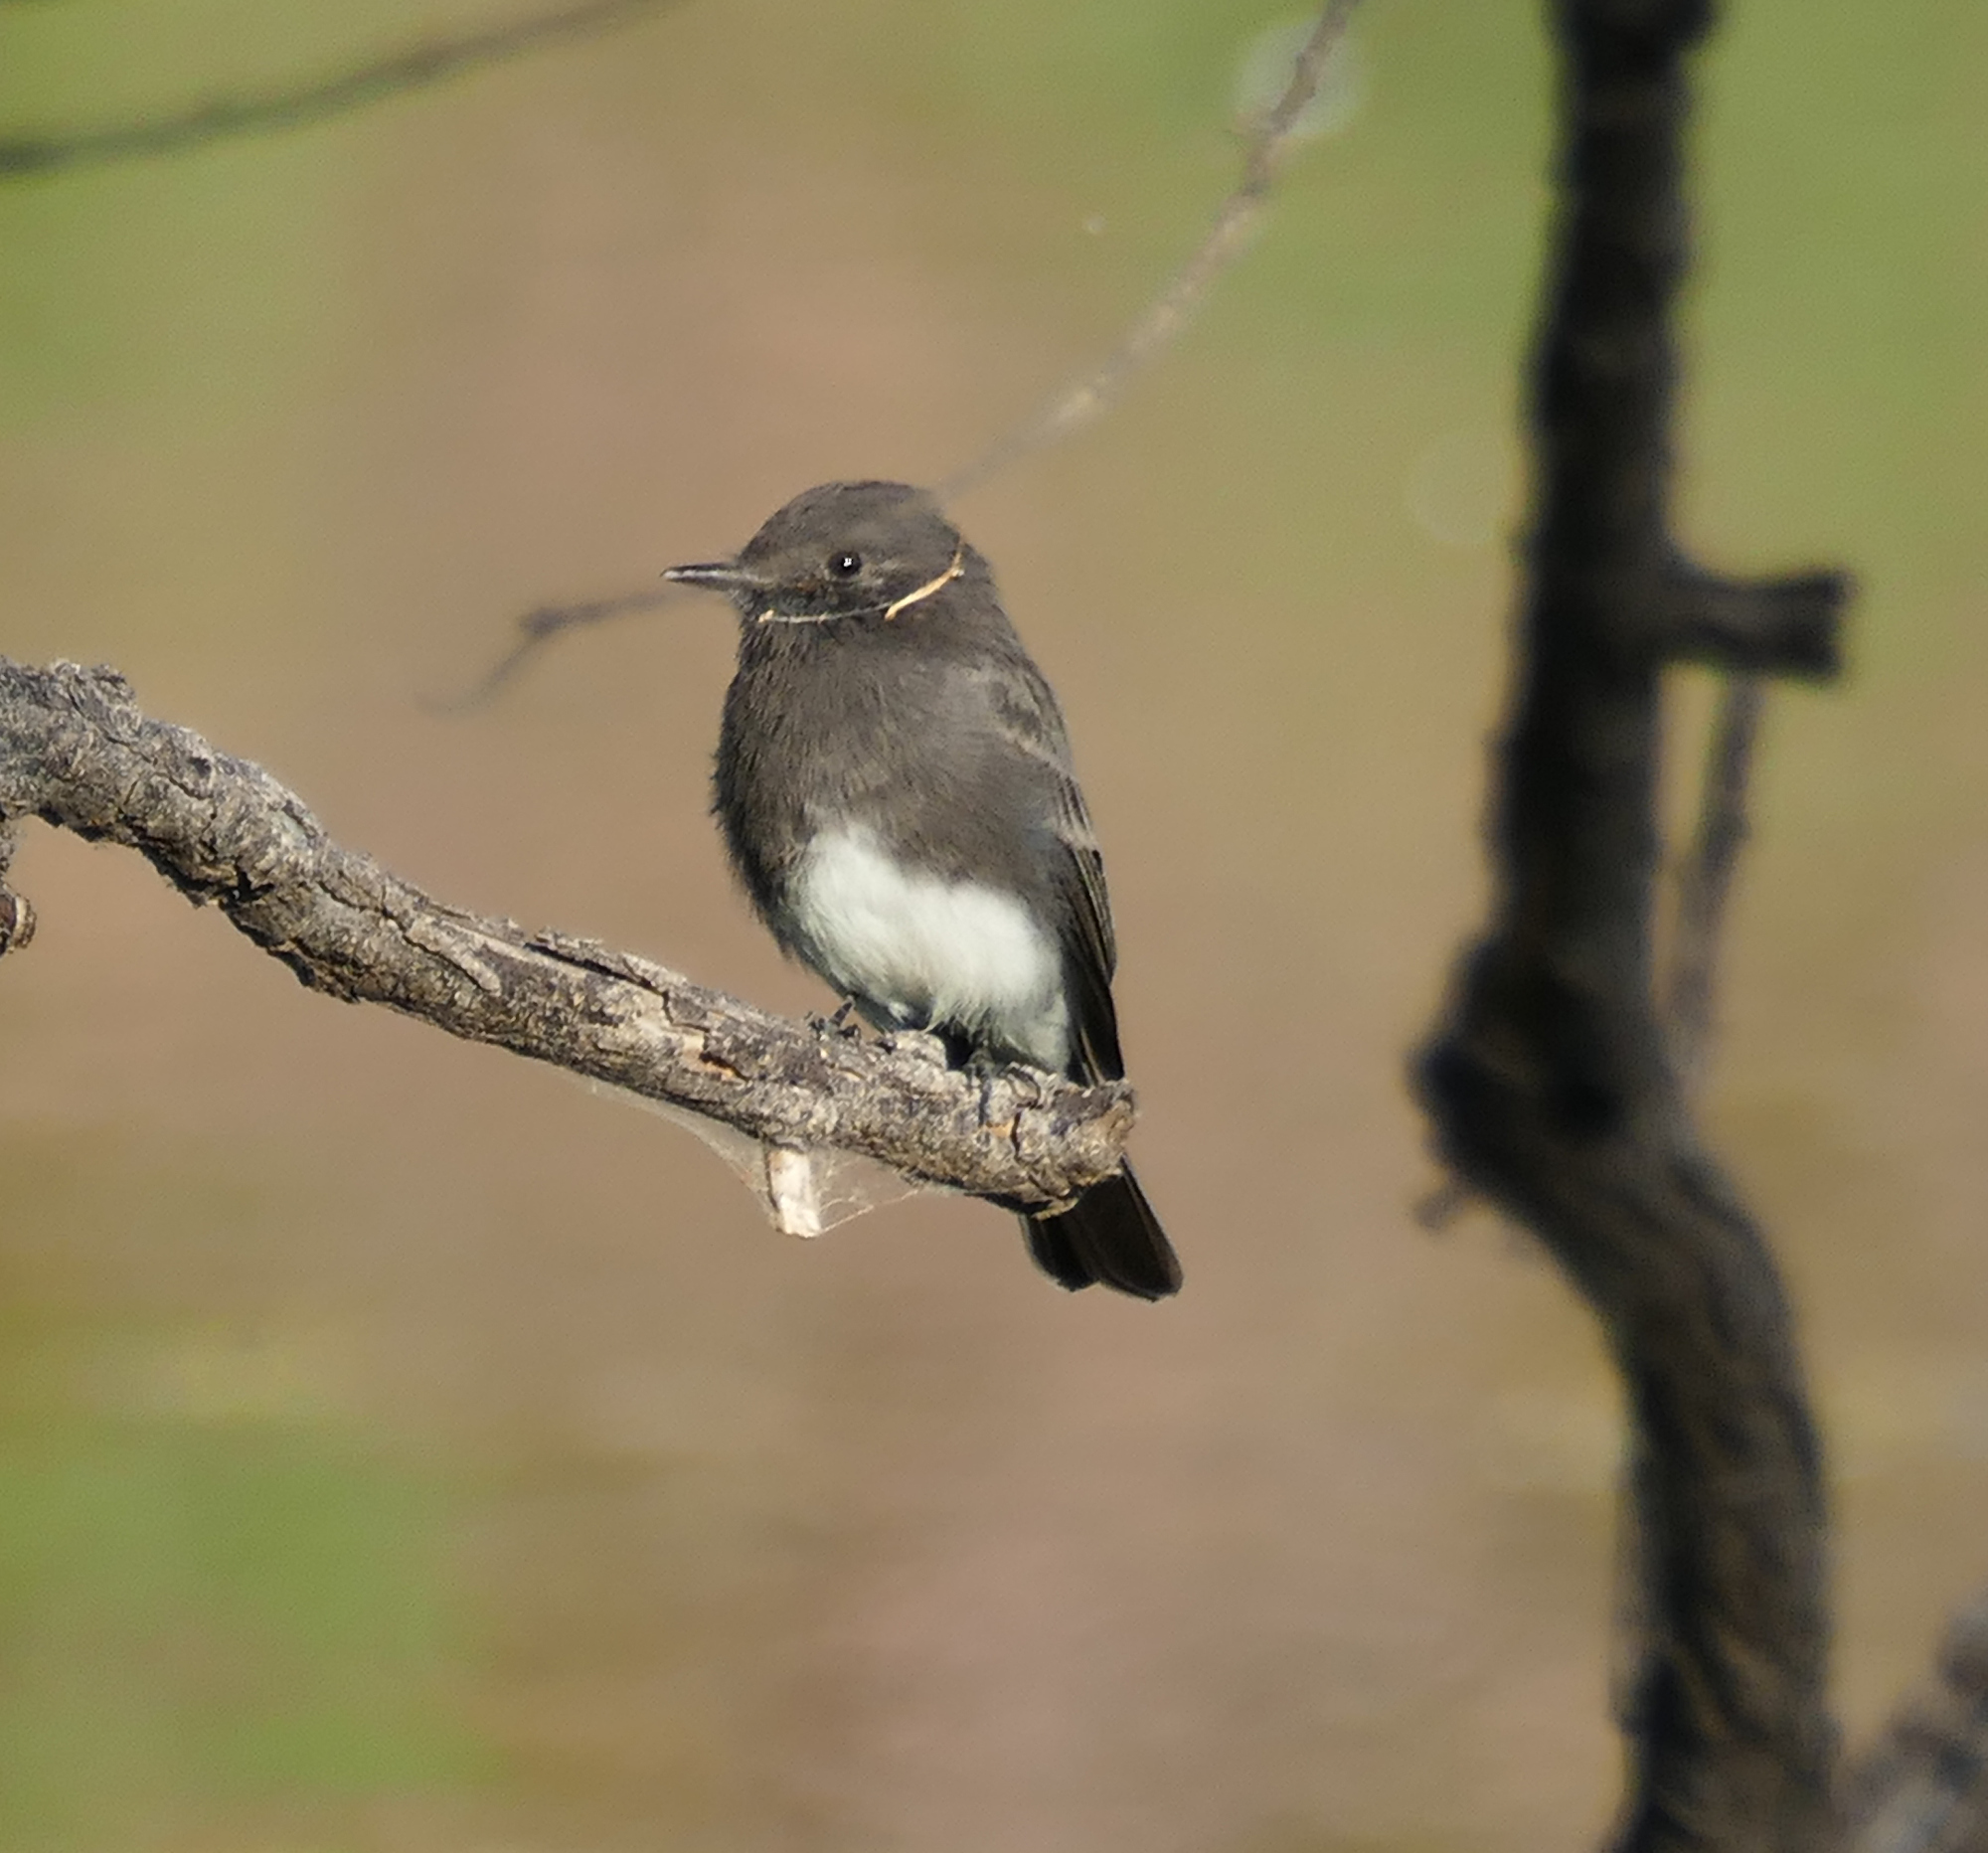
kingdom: Animalia
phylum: Chordata
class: Aves
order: Passeriformes
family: Tyrannidae
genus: Sayornis
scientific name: Sayornis nigricans
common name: Black phoebe
